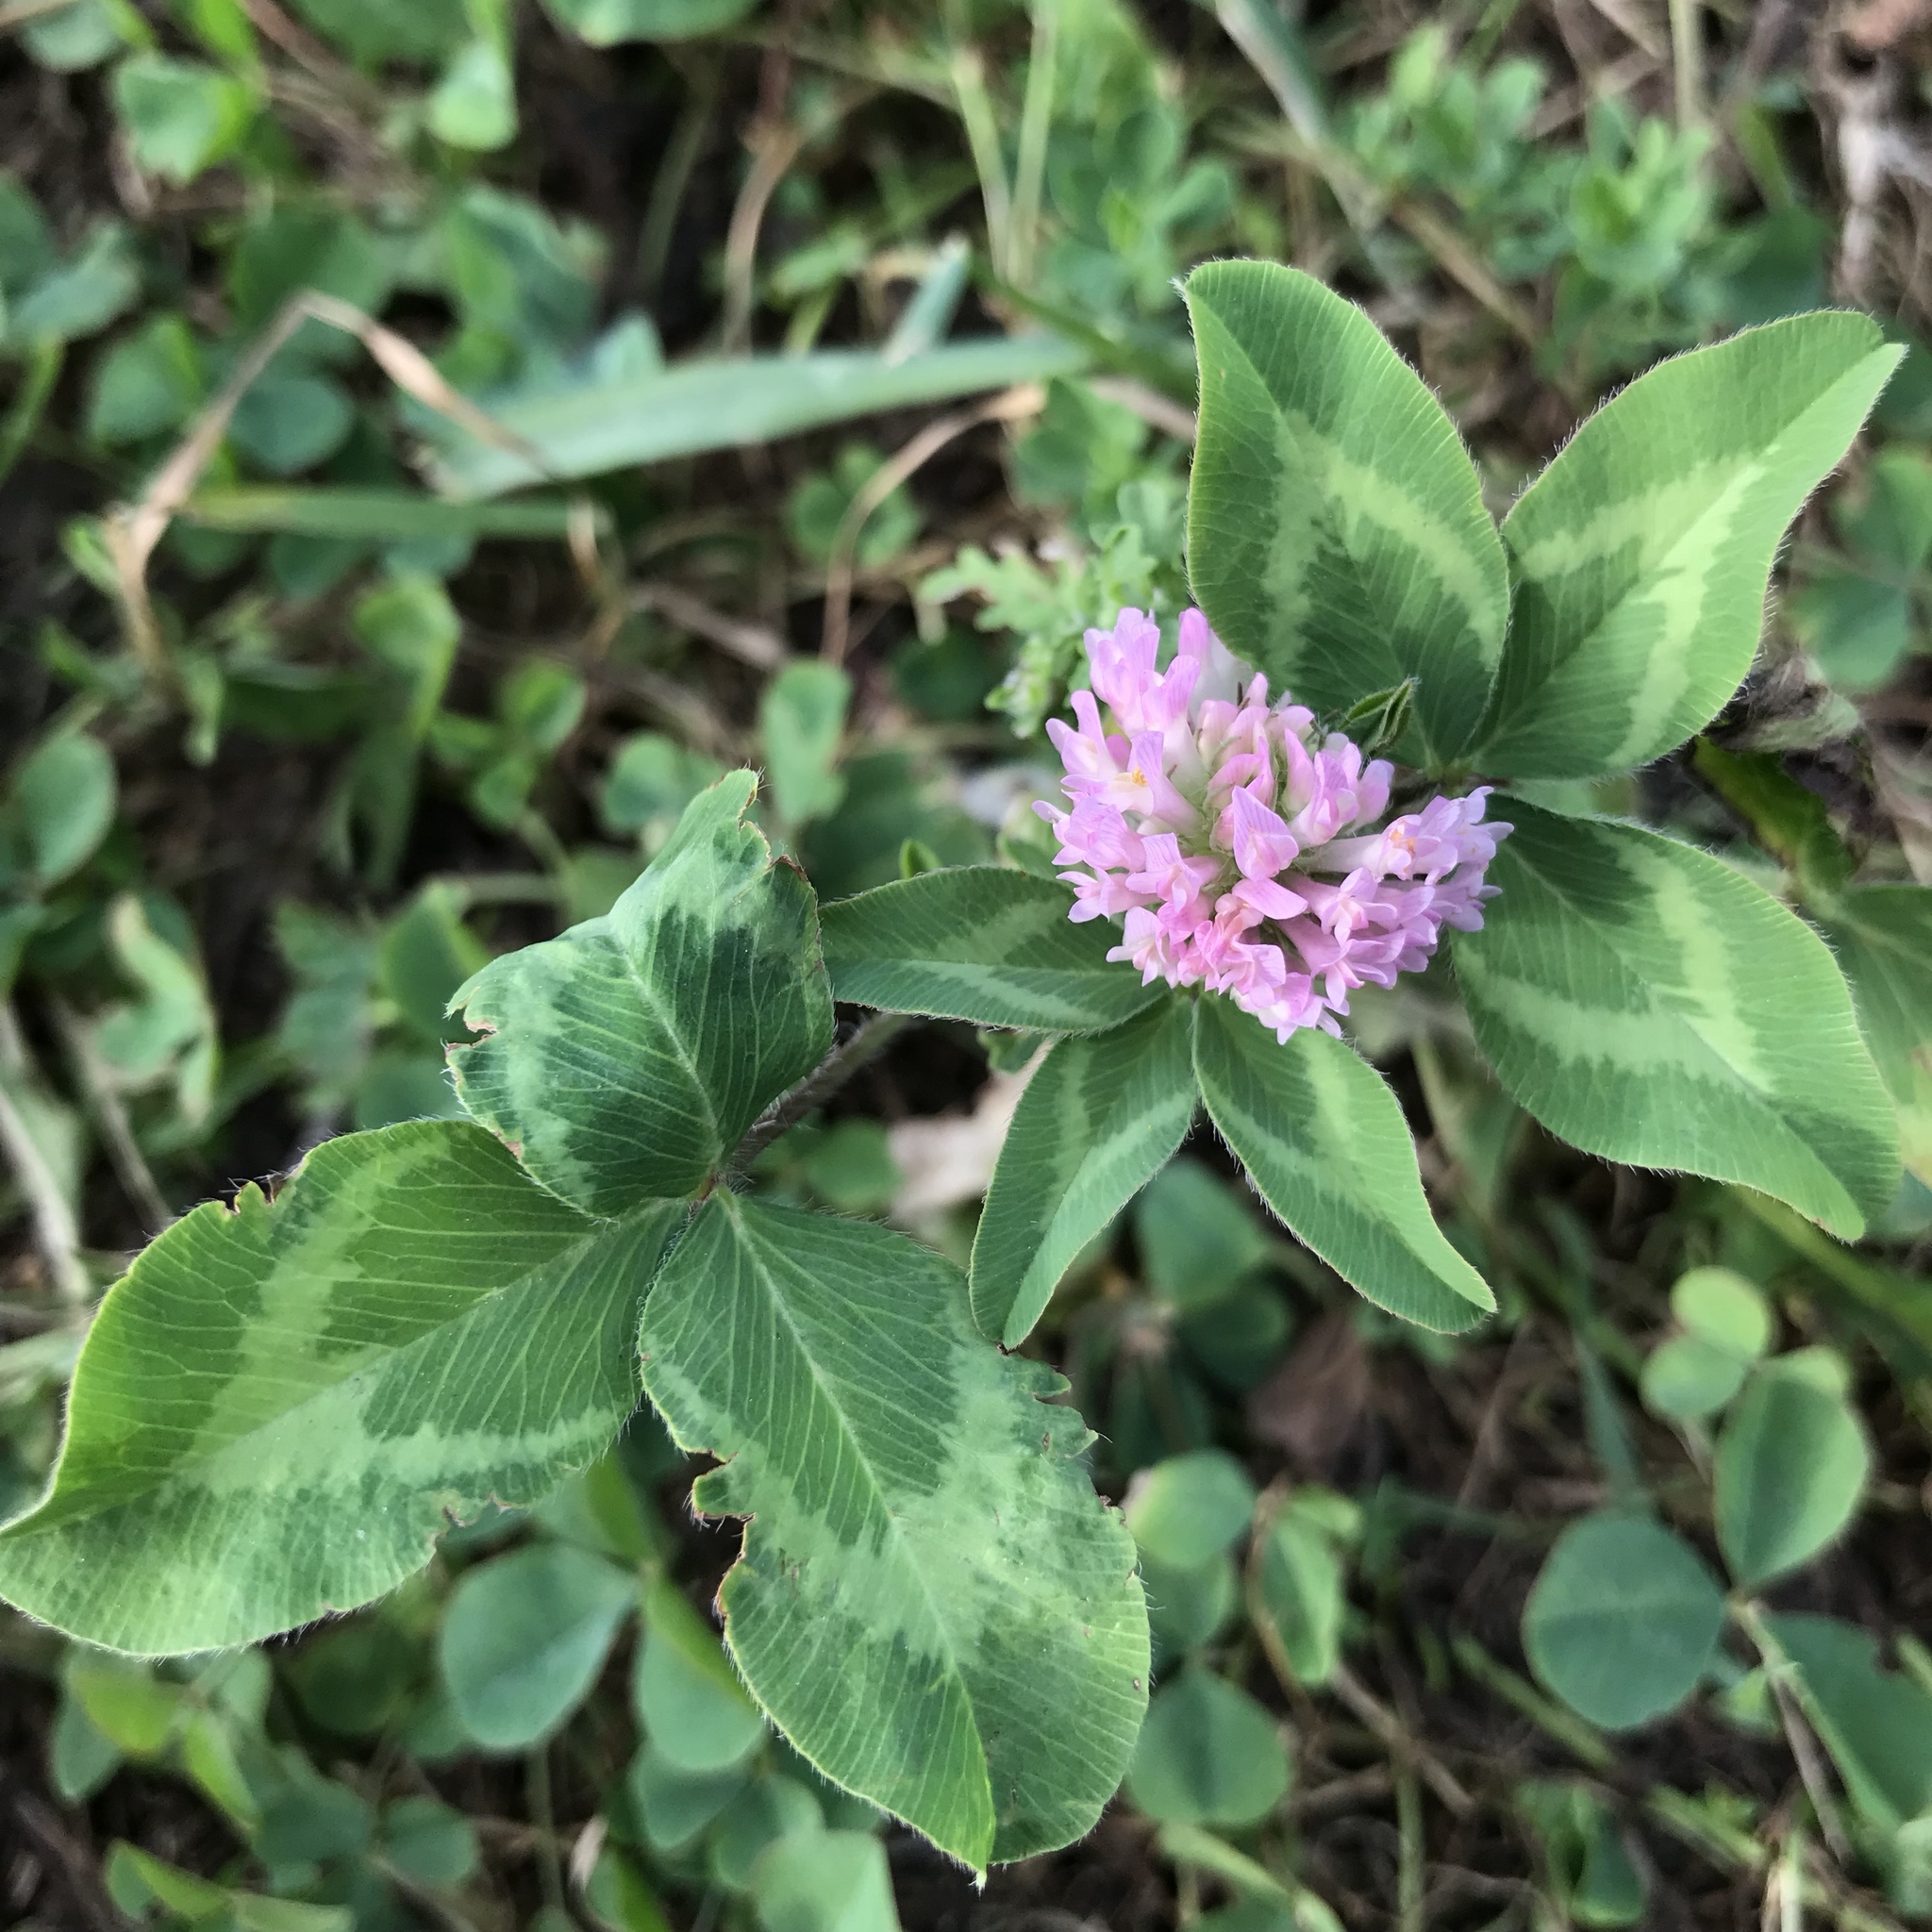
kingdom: Plantae
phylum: Tracheophyta
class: Magnoliopsida
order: Fabales
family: Fabaceae
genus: Trifolium
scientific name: Trifolium pratense
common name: Red clover
